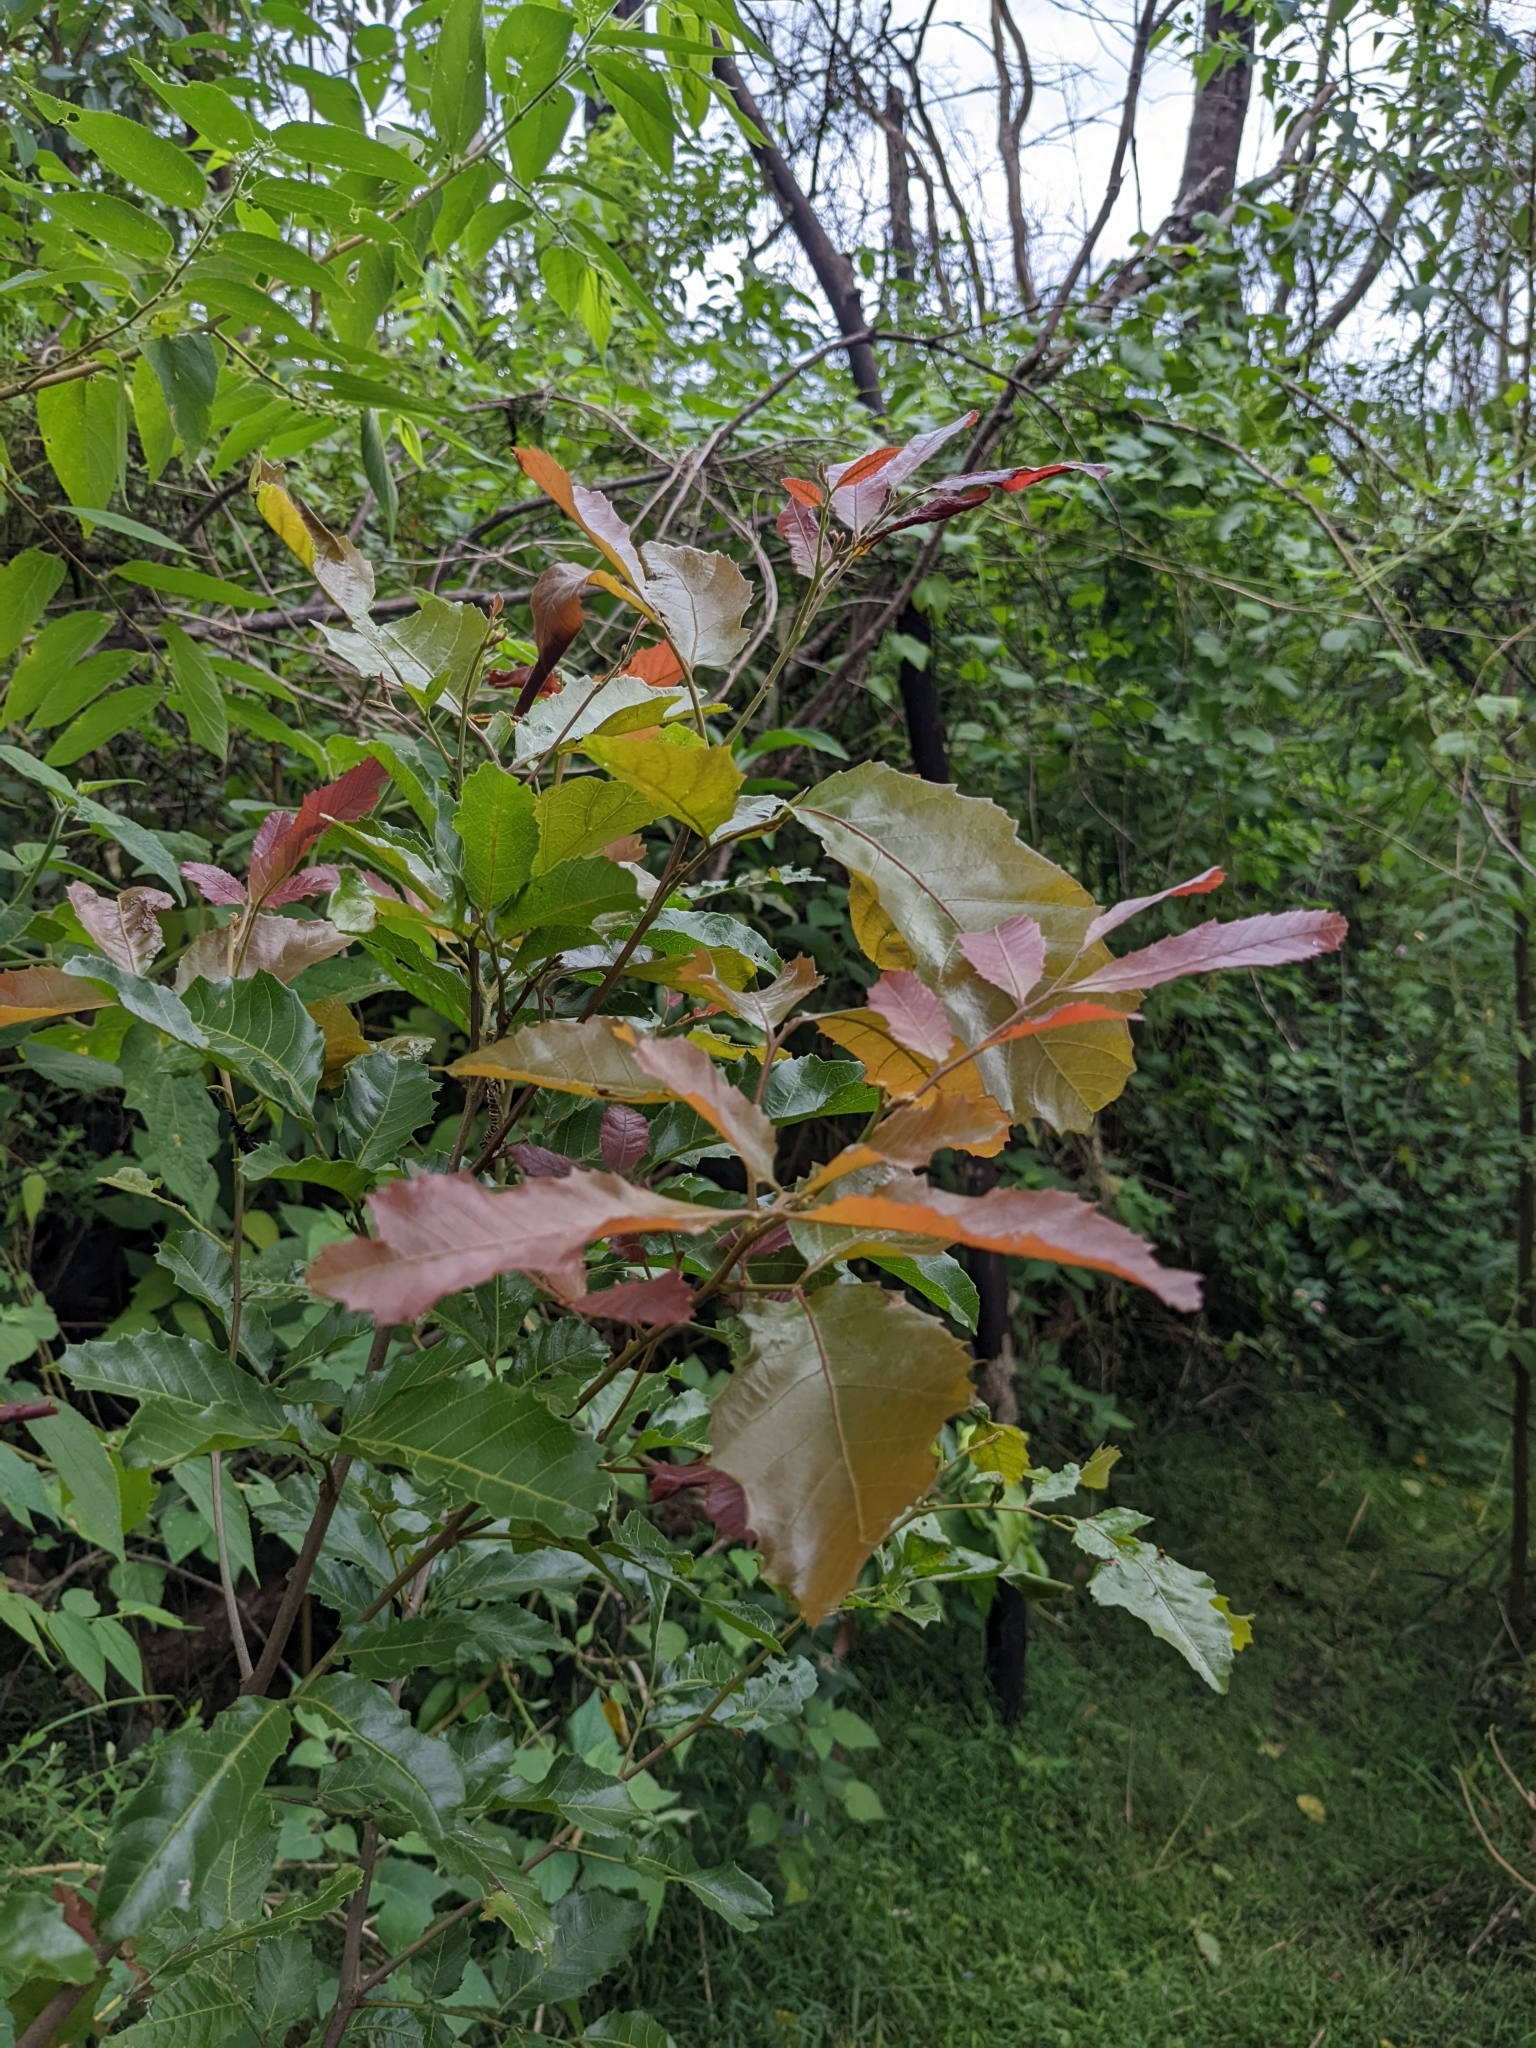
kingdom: Plantae
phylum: Tracheophyta
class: Magnoliopsida
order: Sapindales
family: Sapindaceae
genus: Elattostachys
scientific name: Elattostachys xylocarpa
